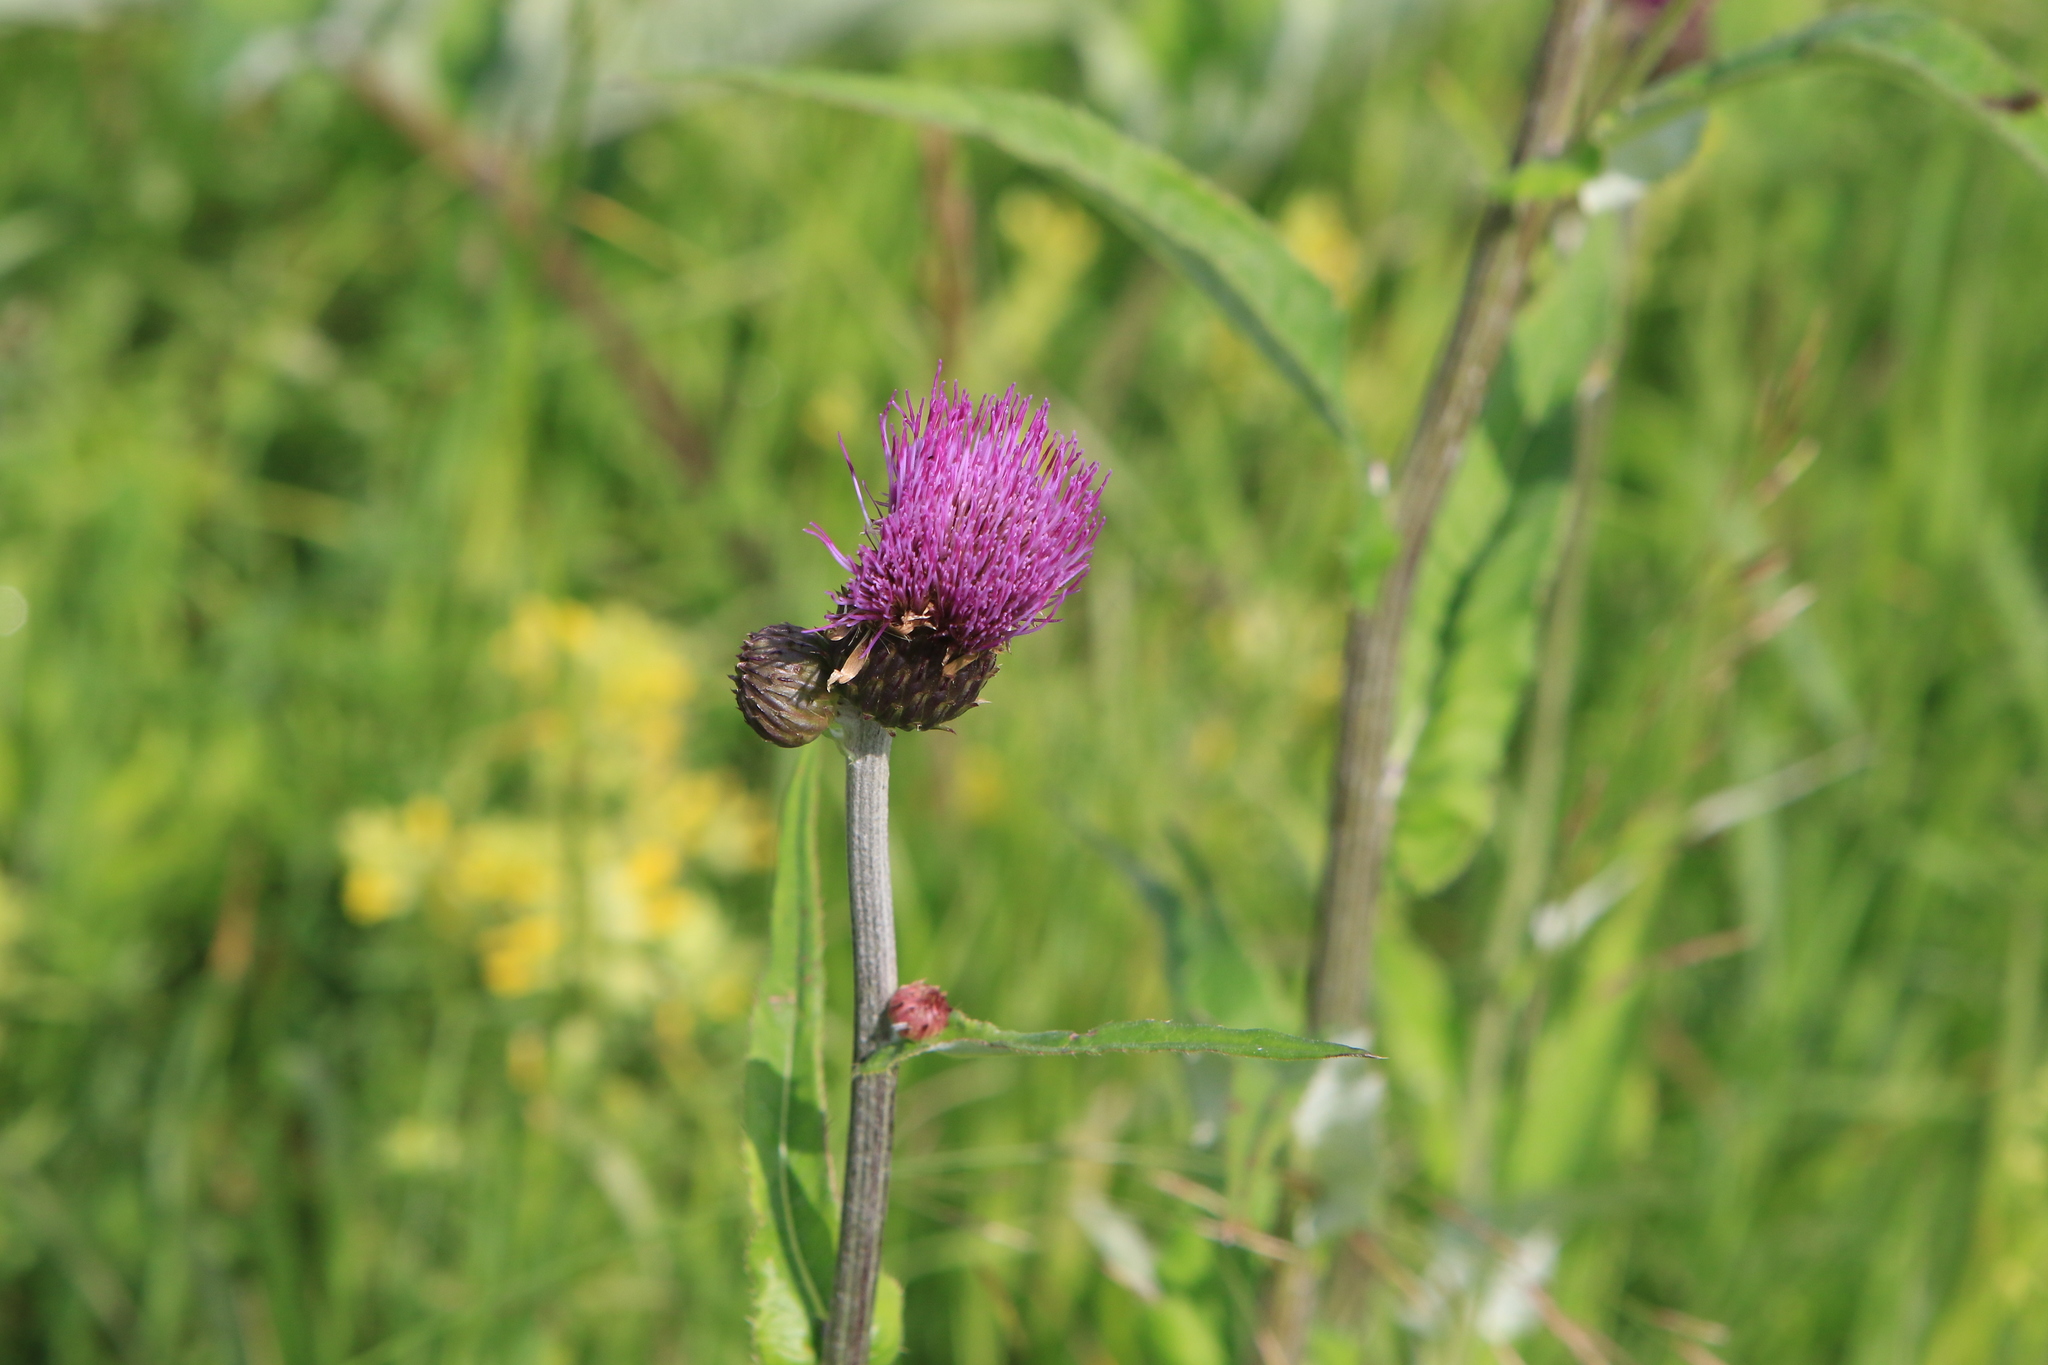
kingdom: Plantae
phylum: Tracheophyta
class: Magnoliopsida
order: Asterales
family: Asteraceae
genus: Cirsium
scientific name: Cirsium heterophyllum
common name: Melancholy thistle
